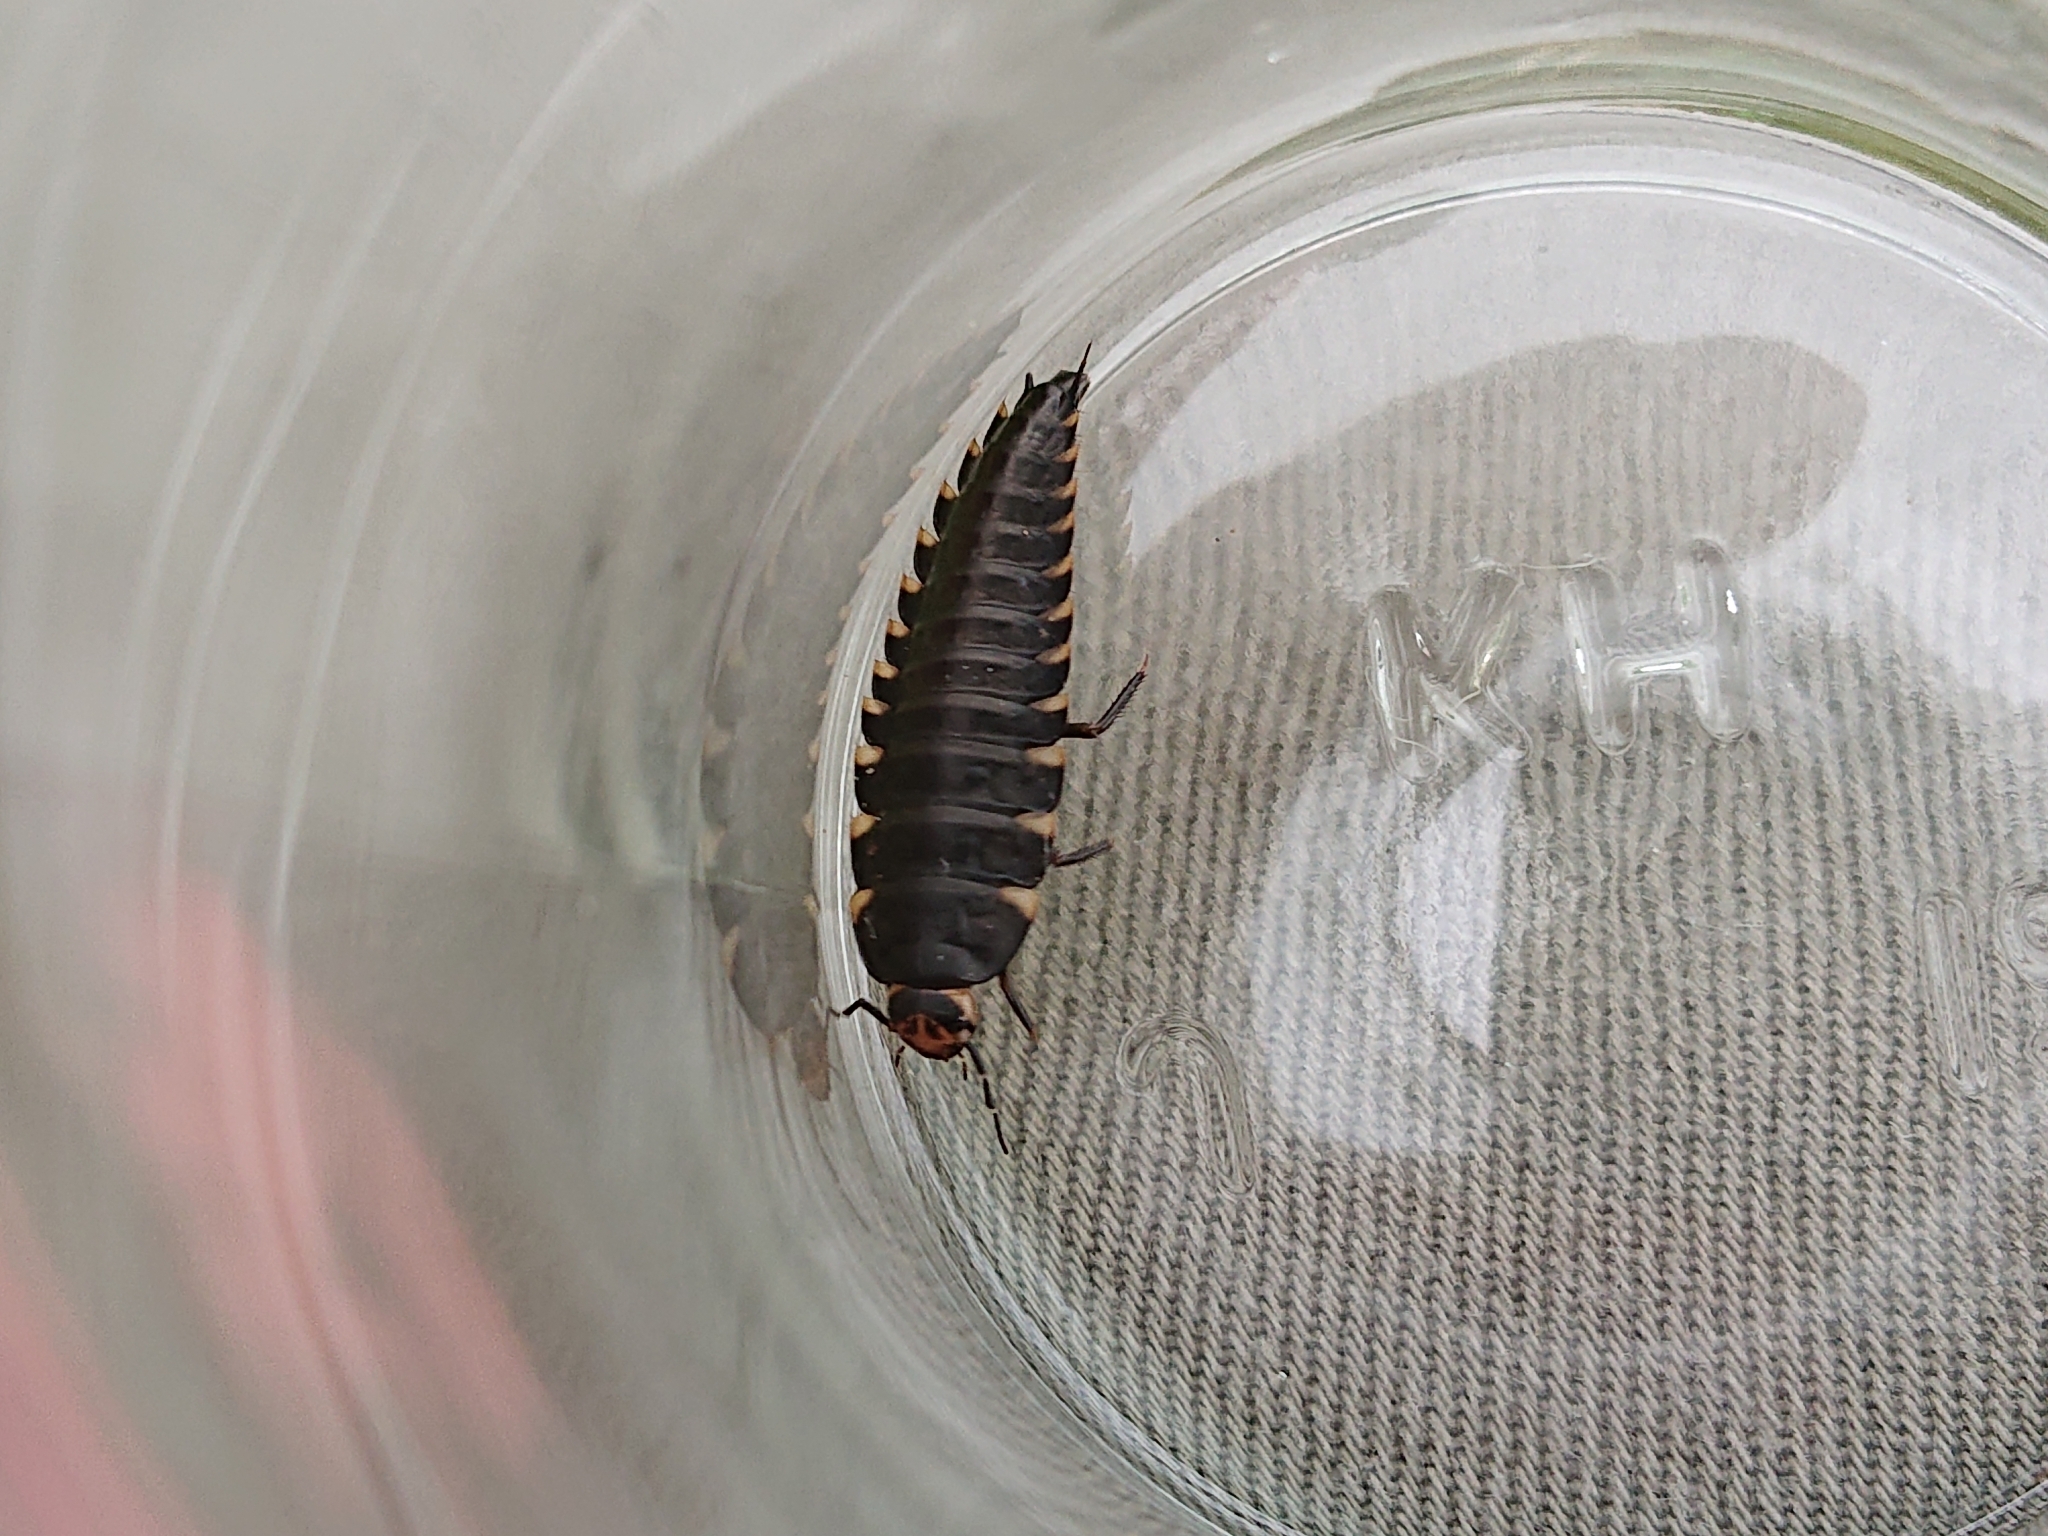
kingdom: Animalia
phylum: Arthropoda
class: Insecta
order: Coleoptera
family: Staphylinidae
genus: Silpha
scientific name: Silpha tristis
